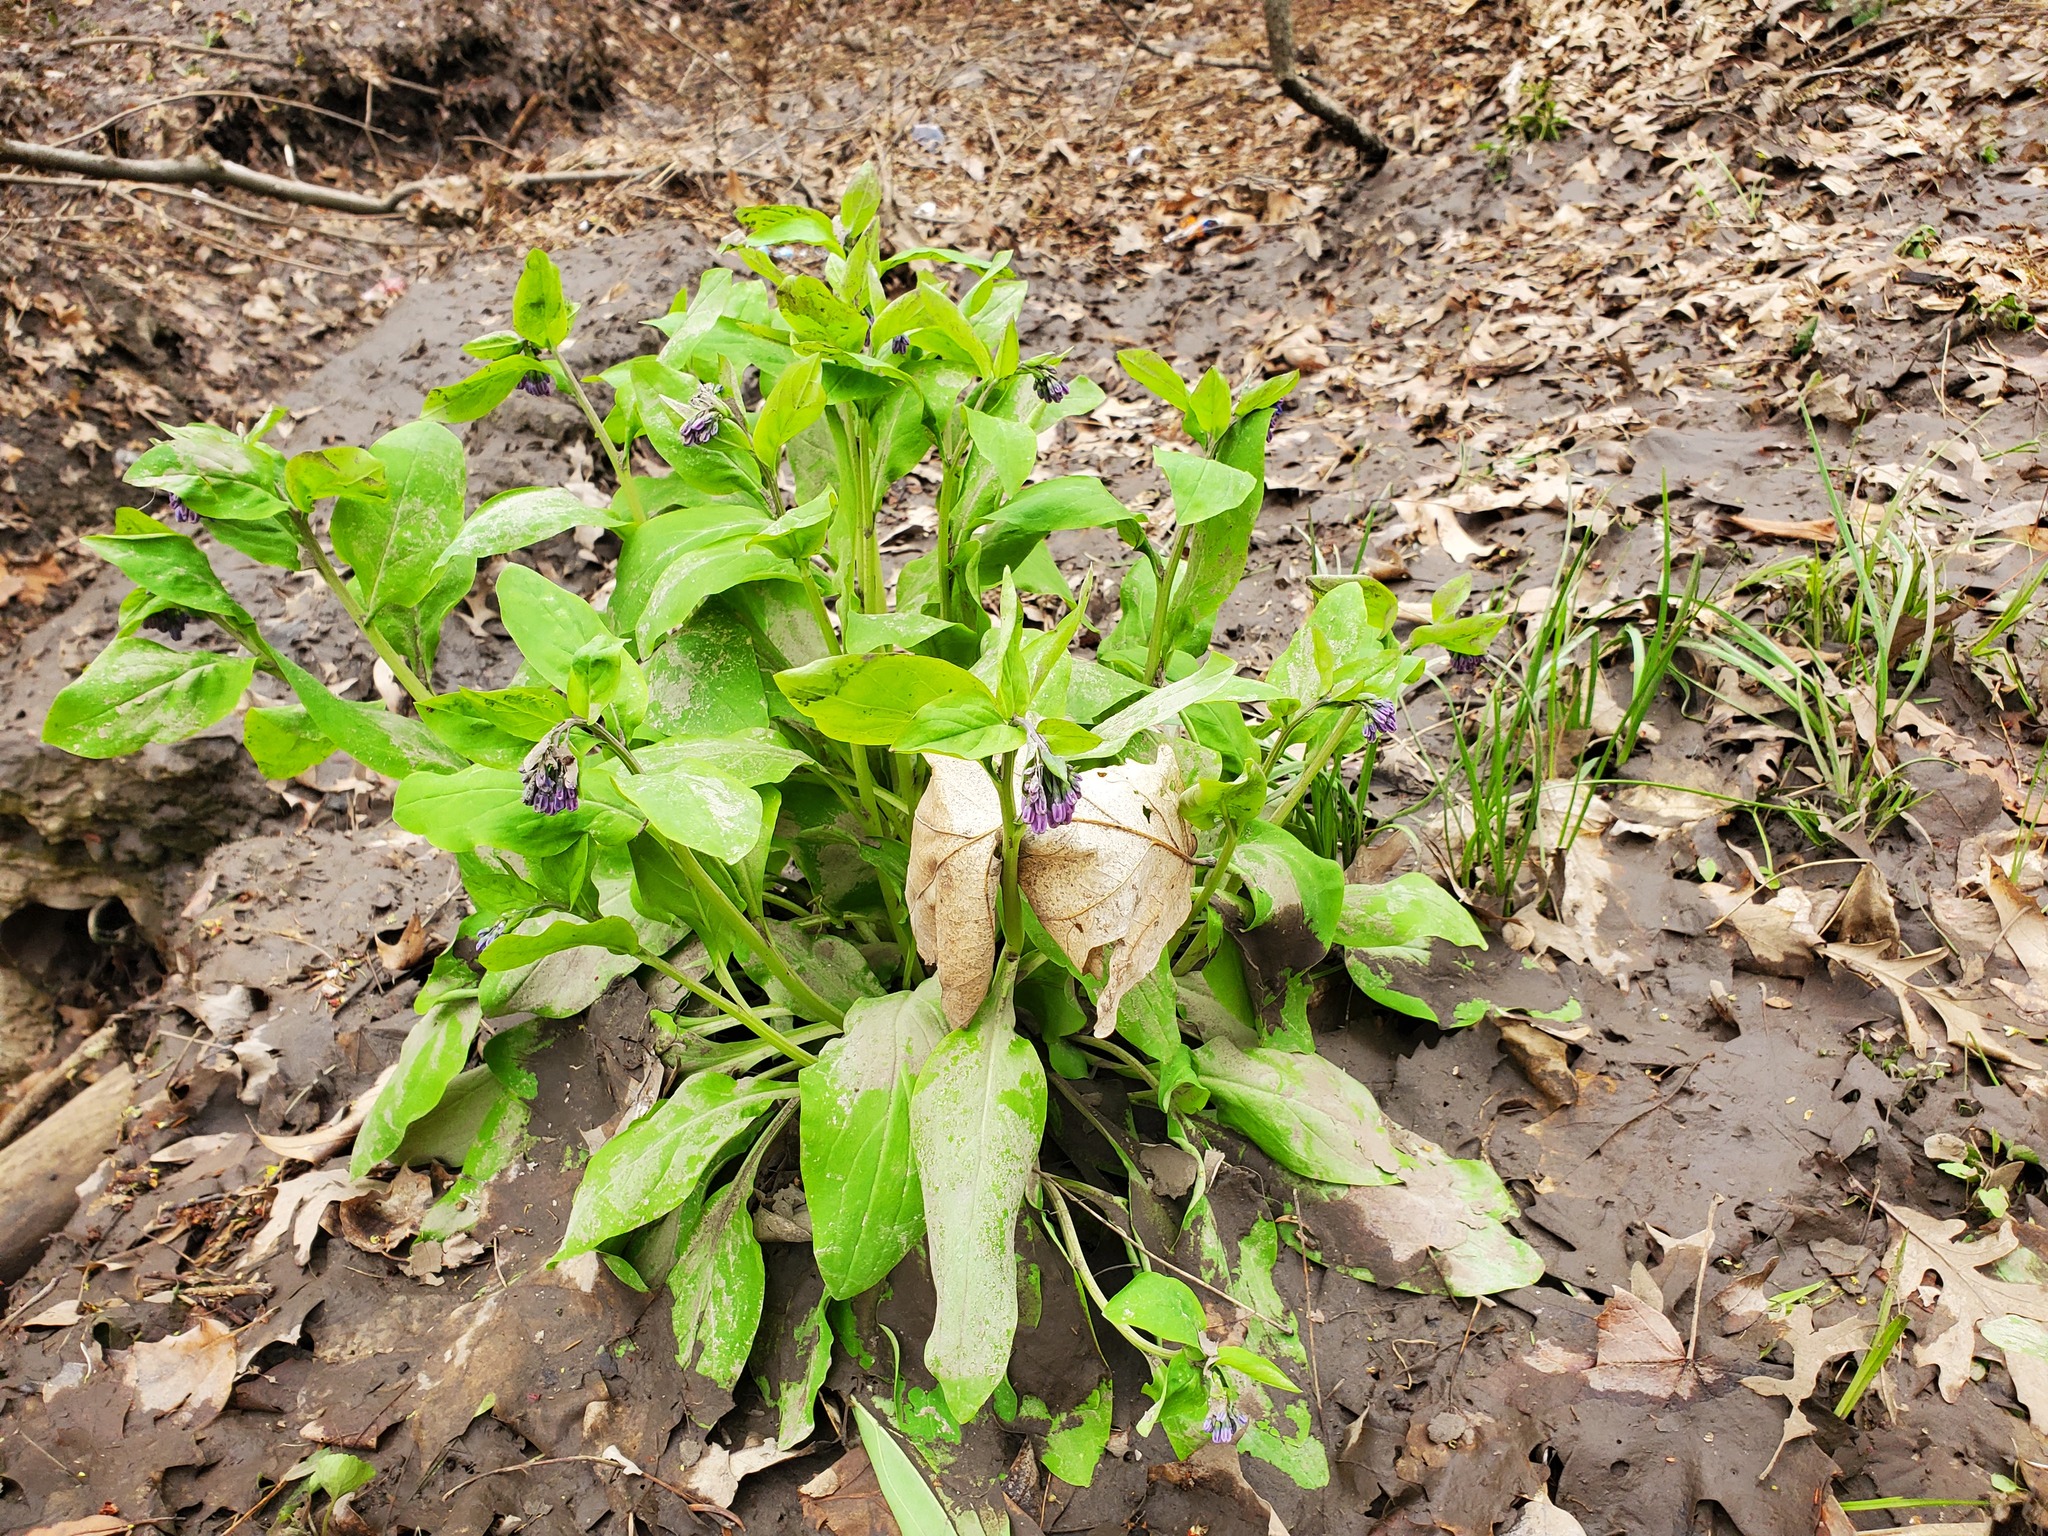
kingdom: Plantae
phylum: Tracheophyta
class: Magnoliopsida
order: Boraginales
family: Boraginaceae
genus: Mertensia
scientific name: Mertensia virginica
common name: Virginia bluebells
